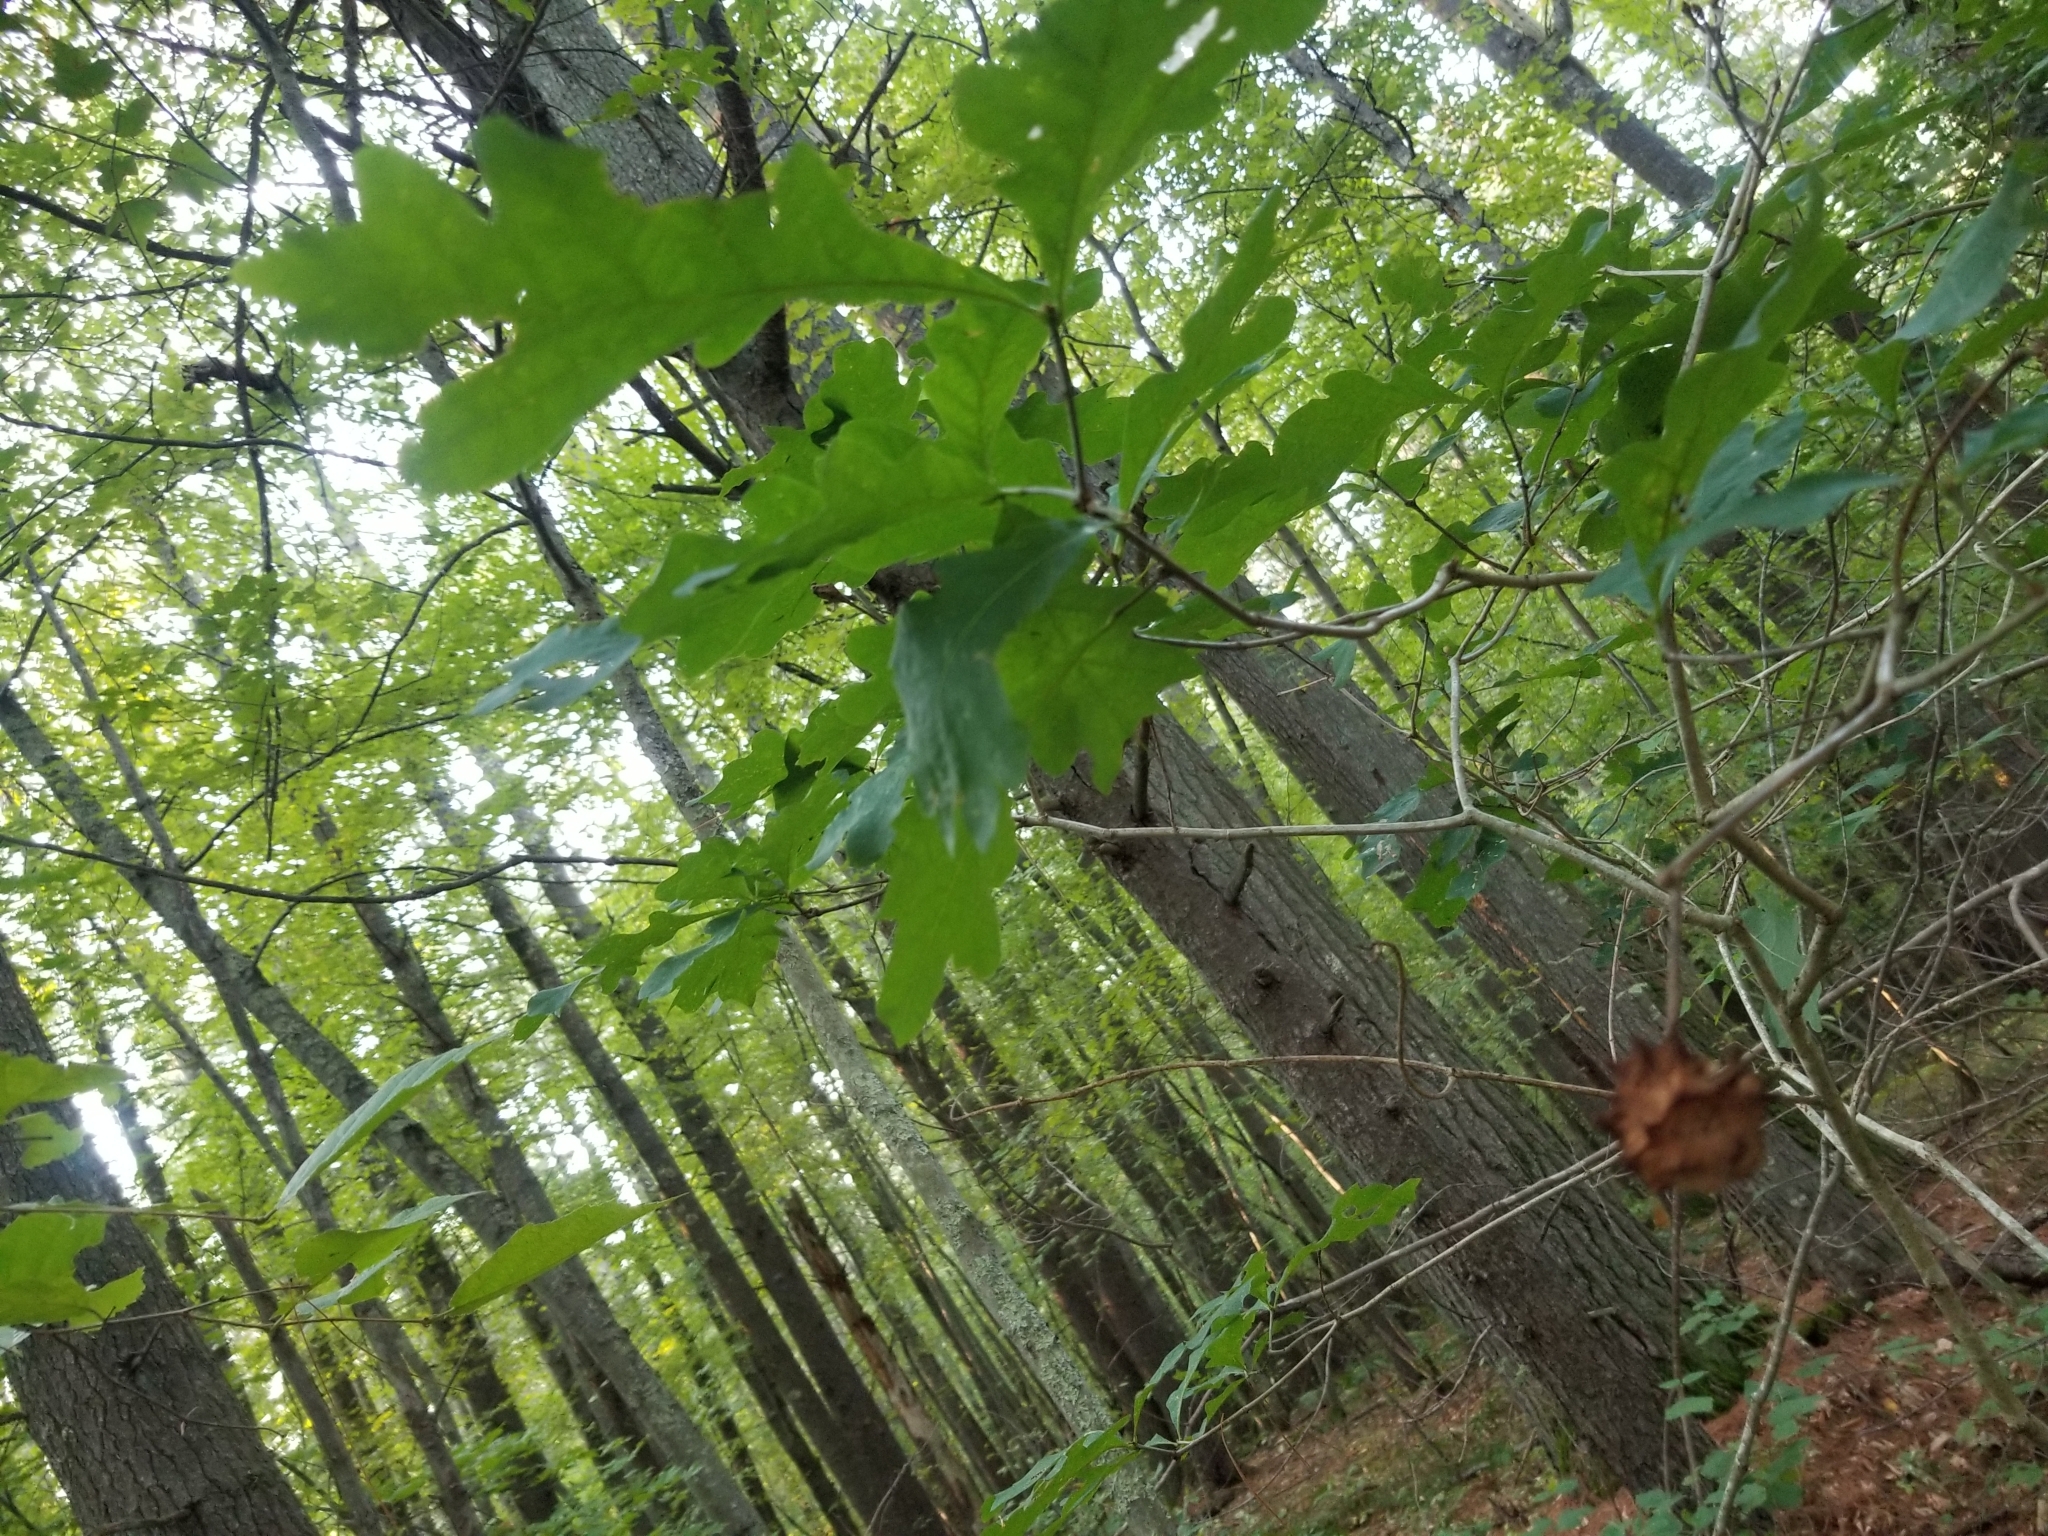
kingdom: Animalia
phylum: Arthropoda
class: Insecta
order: Hymenoptera
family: Cynipidae
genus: Callirhytis
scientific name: Callirhytis
